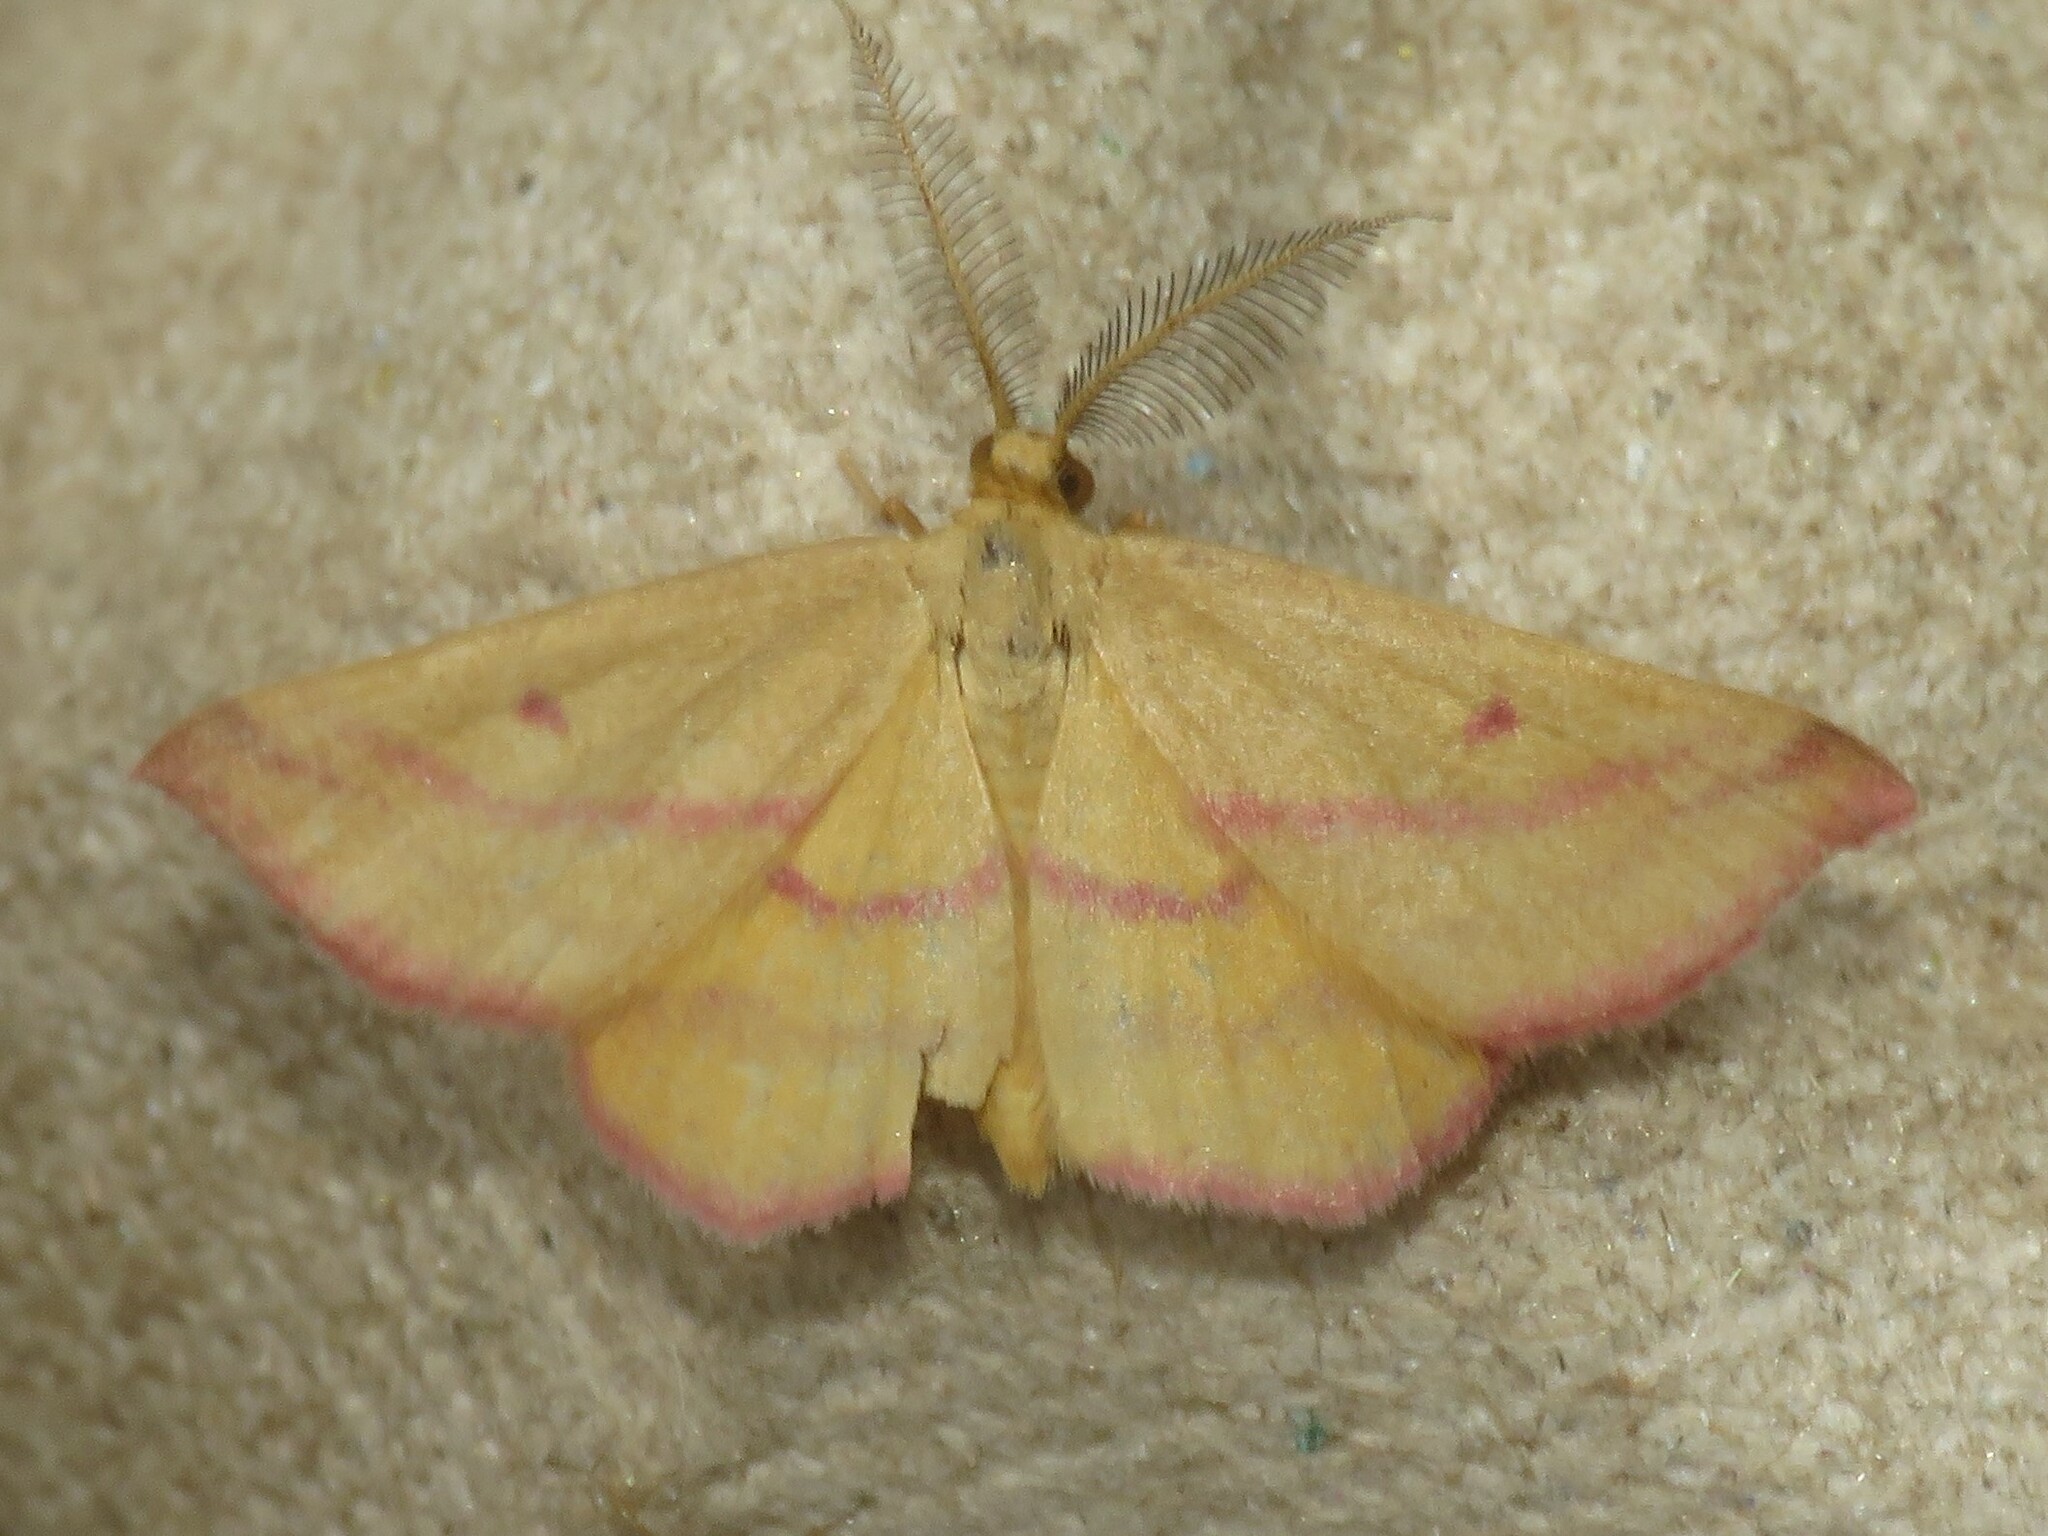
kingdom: Animalia
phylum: Arthropoda
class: Insecta
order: Lepidoptera
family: Geometridae
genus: Haematopis
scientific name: Haematopis grataria
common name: Chickweed geometer
